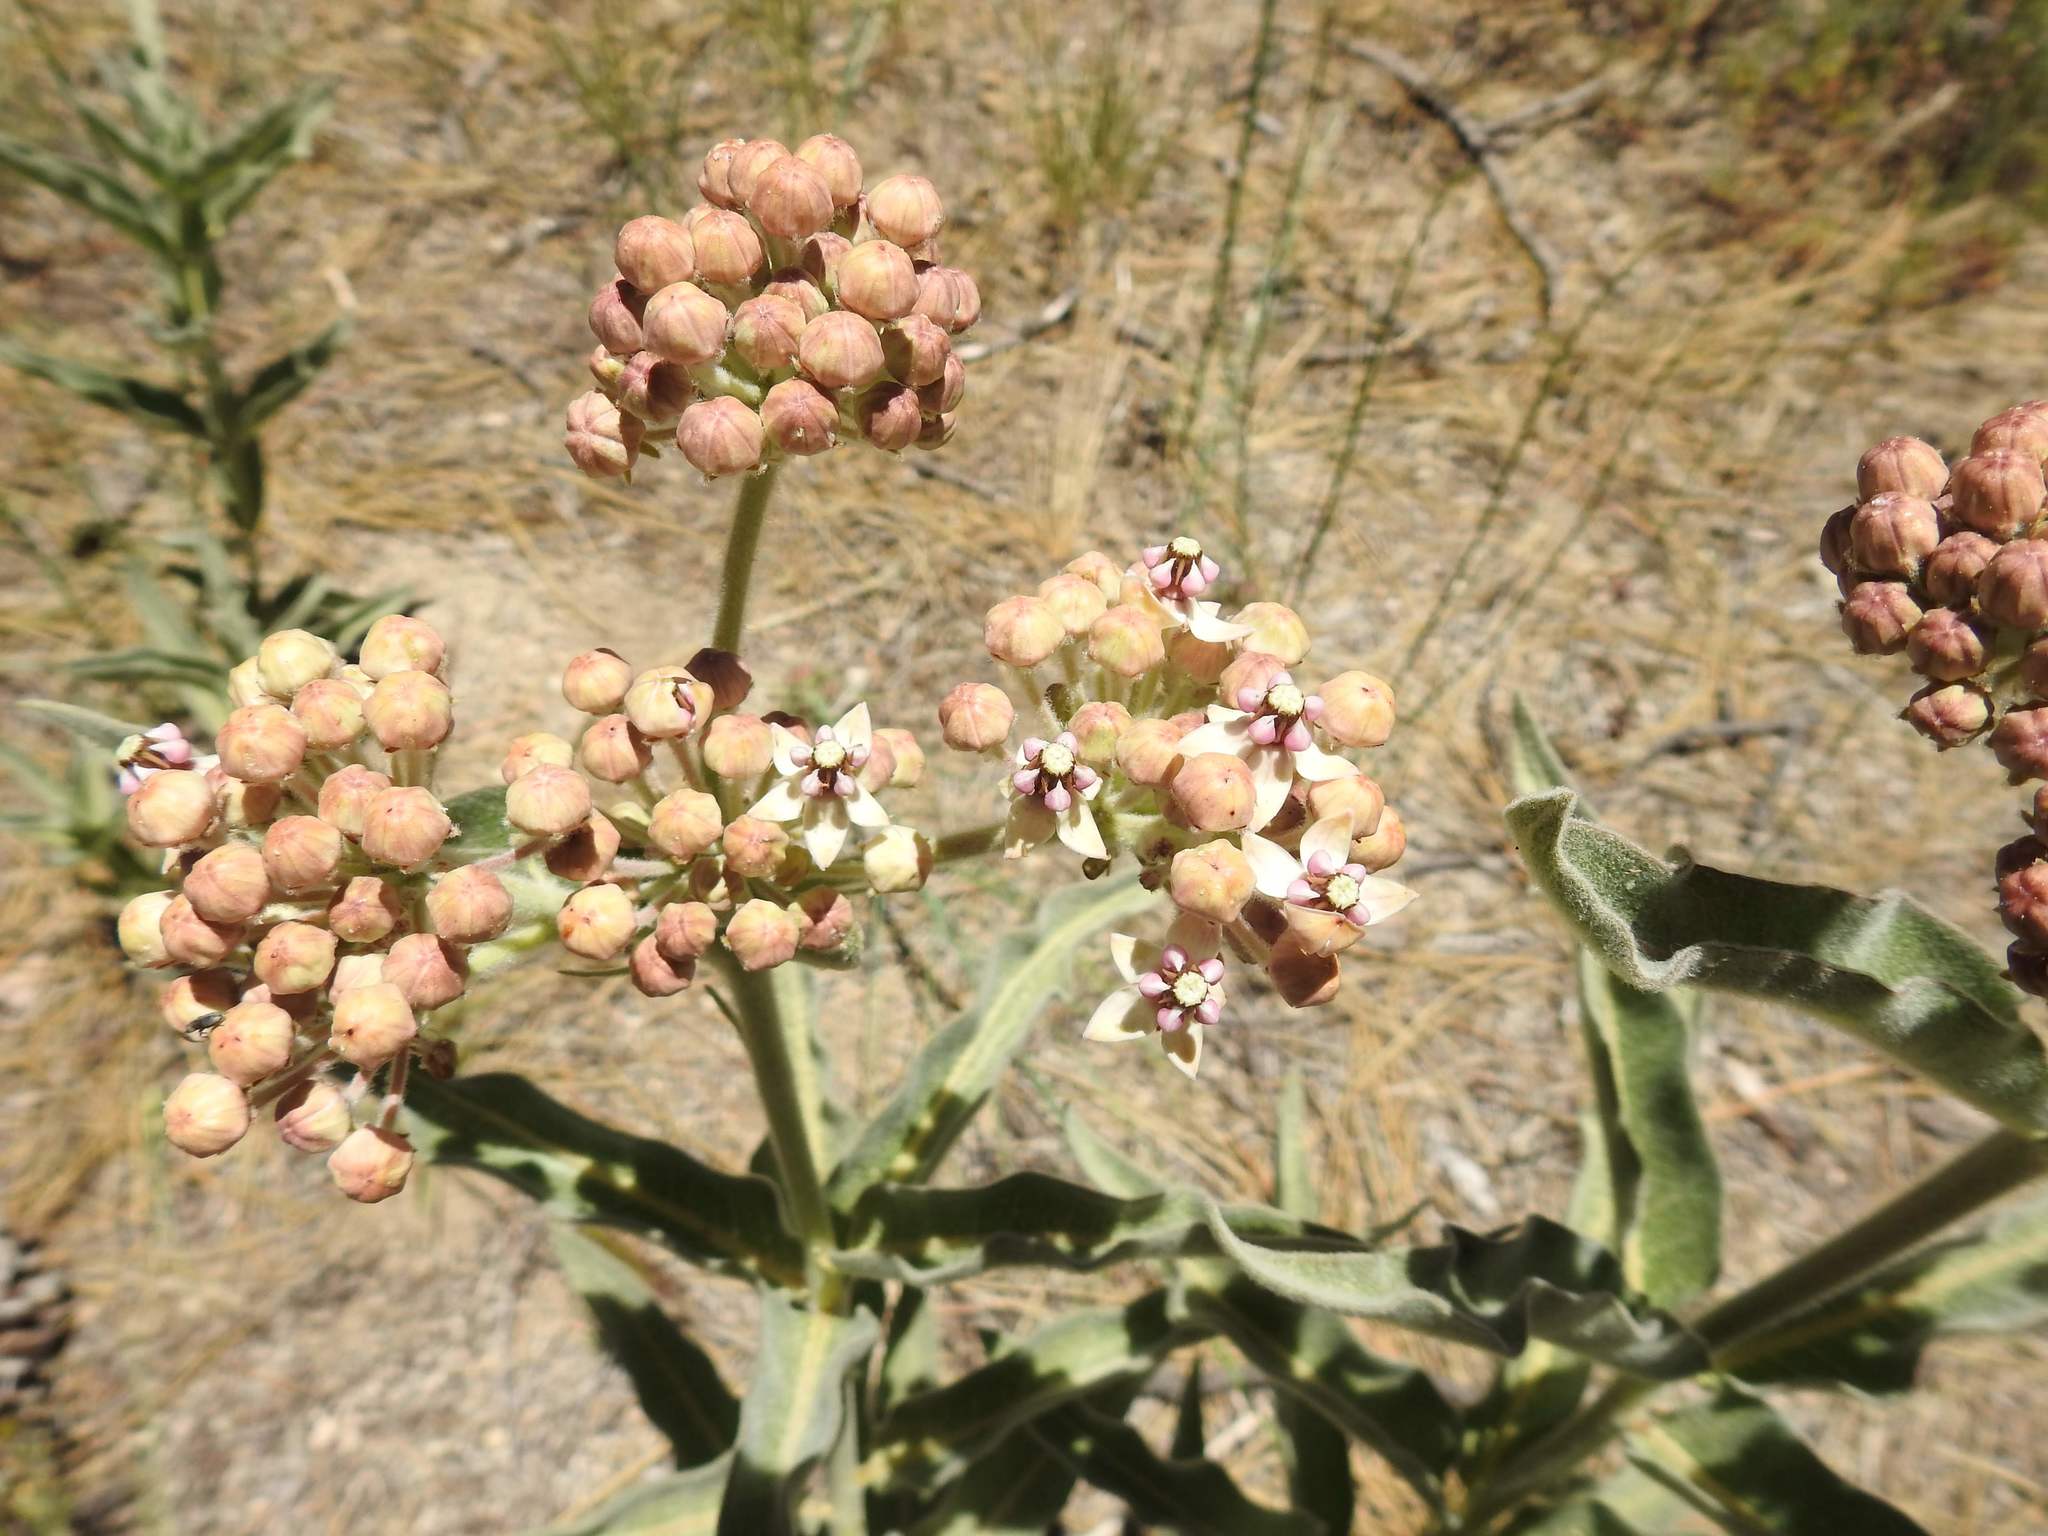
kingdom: Plantae
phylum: Tracheophyta
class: Magnoliopsida
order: Gentianales
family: Apocynaceae
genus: Asclepias
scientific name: Asclepias eriocarpa
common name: Indian milkweed
